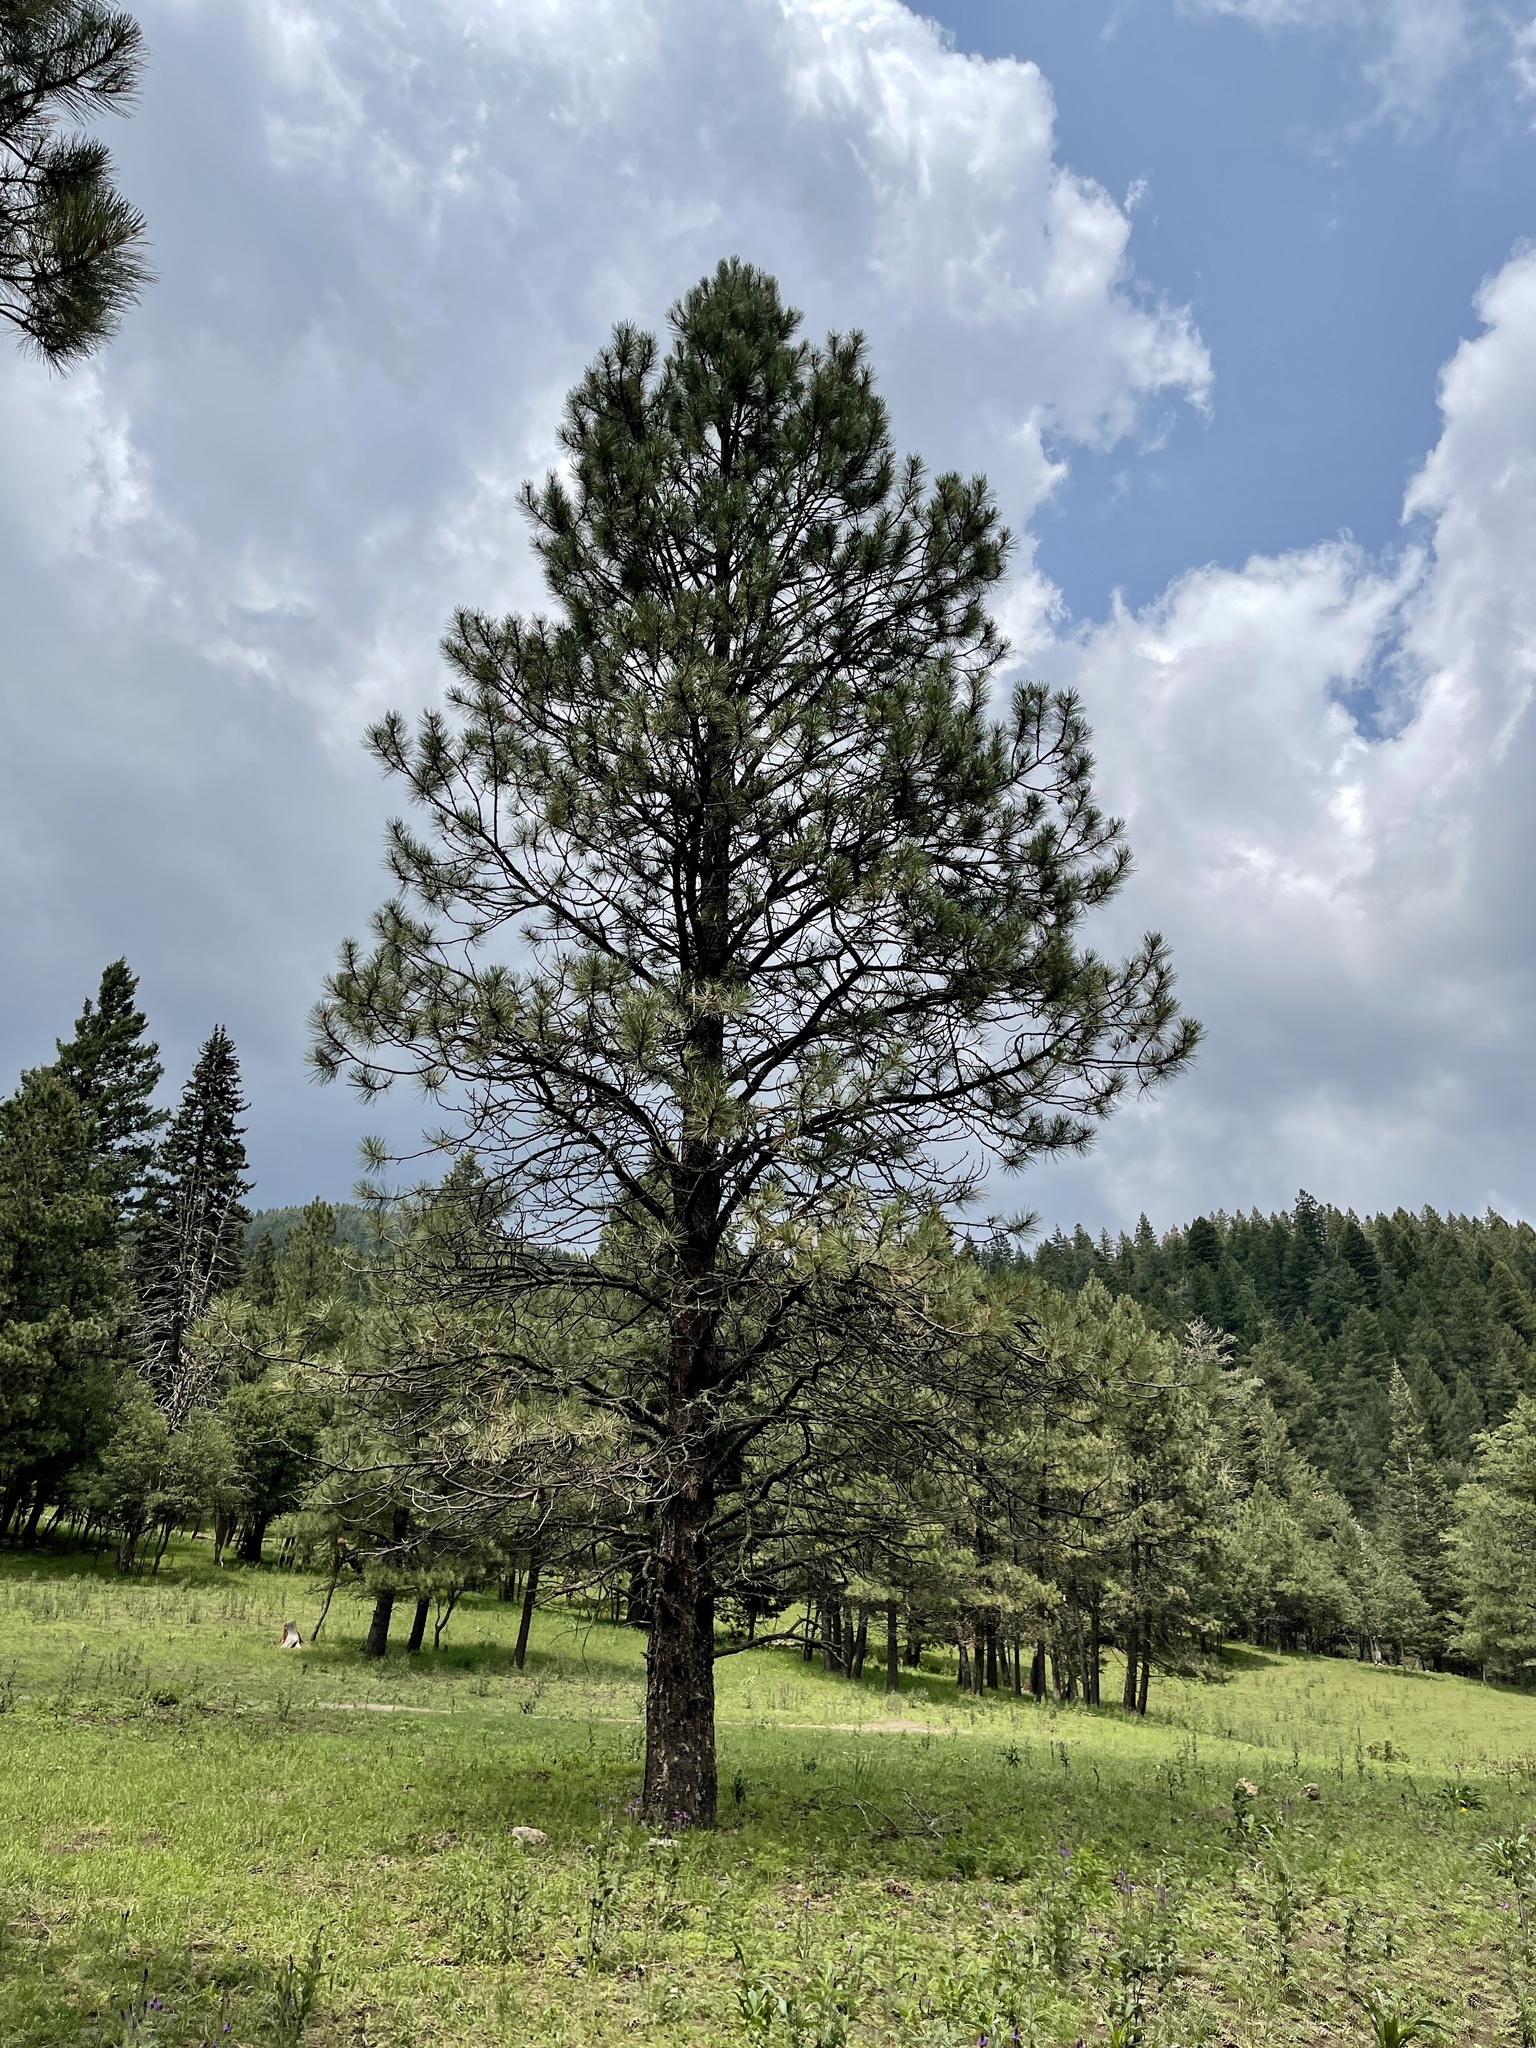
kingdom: Plantae
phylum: Tracheophyta
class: Pinopsida
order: Pinales
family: Pinaceae
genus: Pinus
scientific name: Pinus ponderosa
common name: Western yellow-pine
